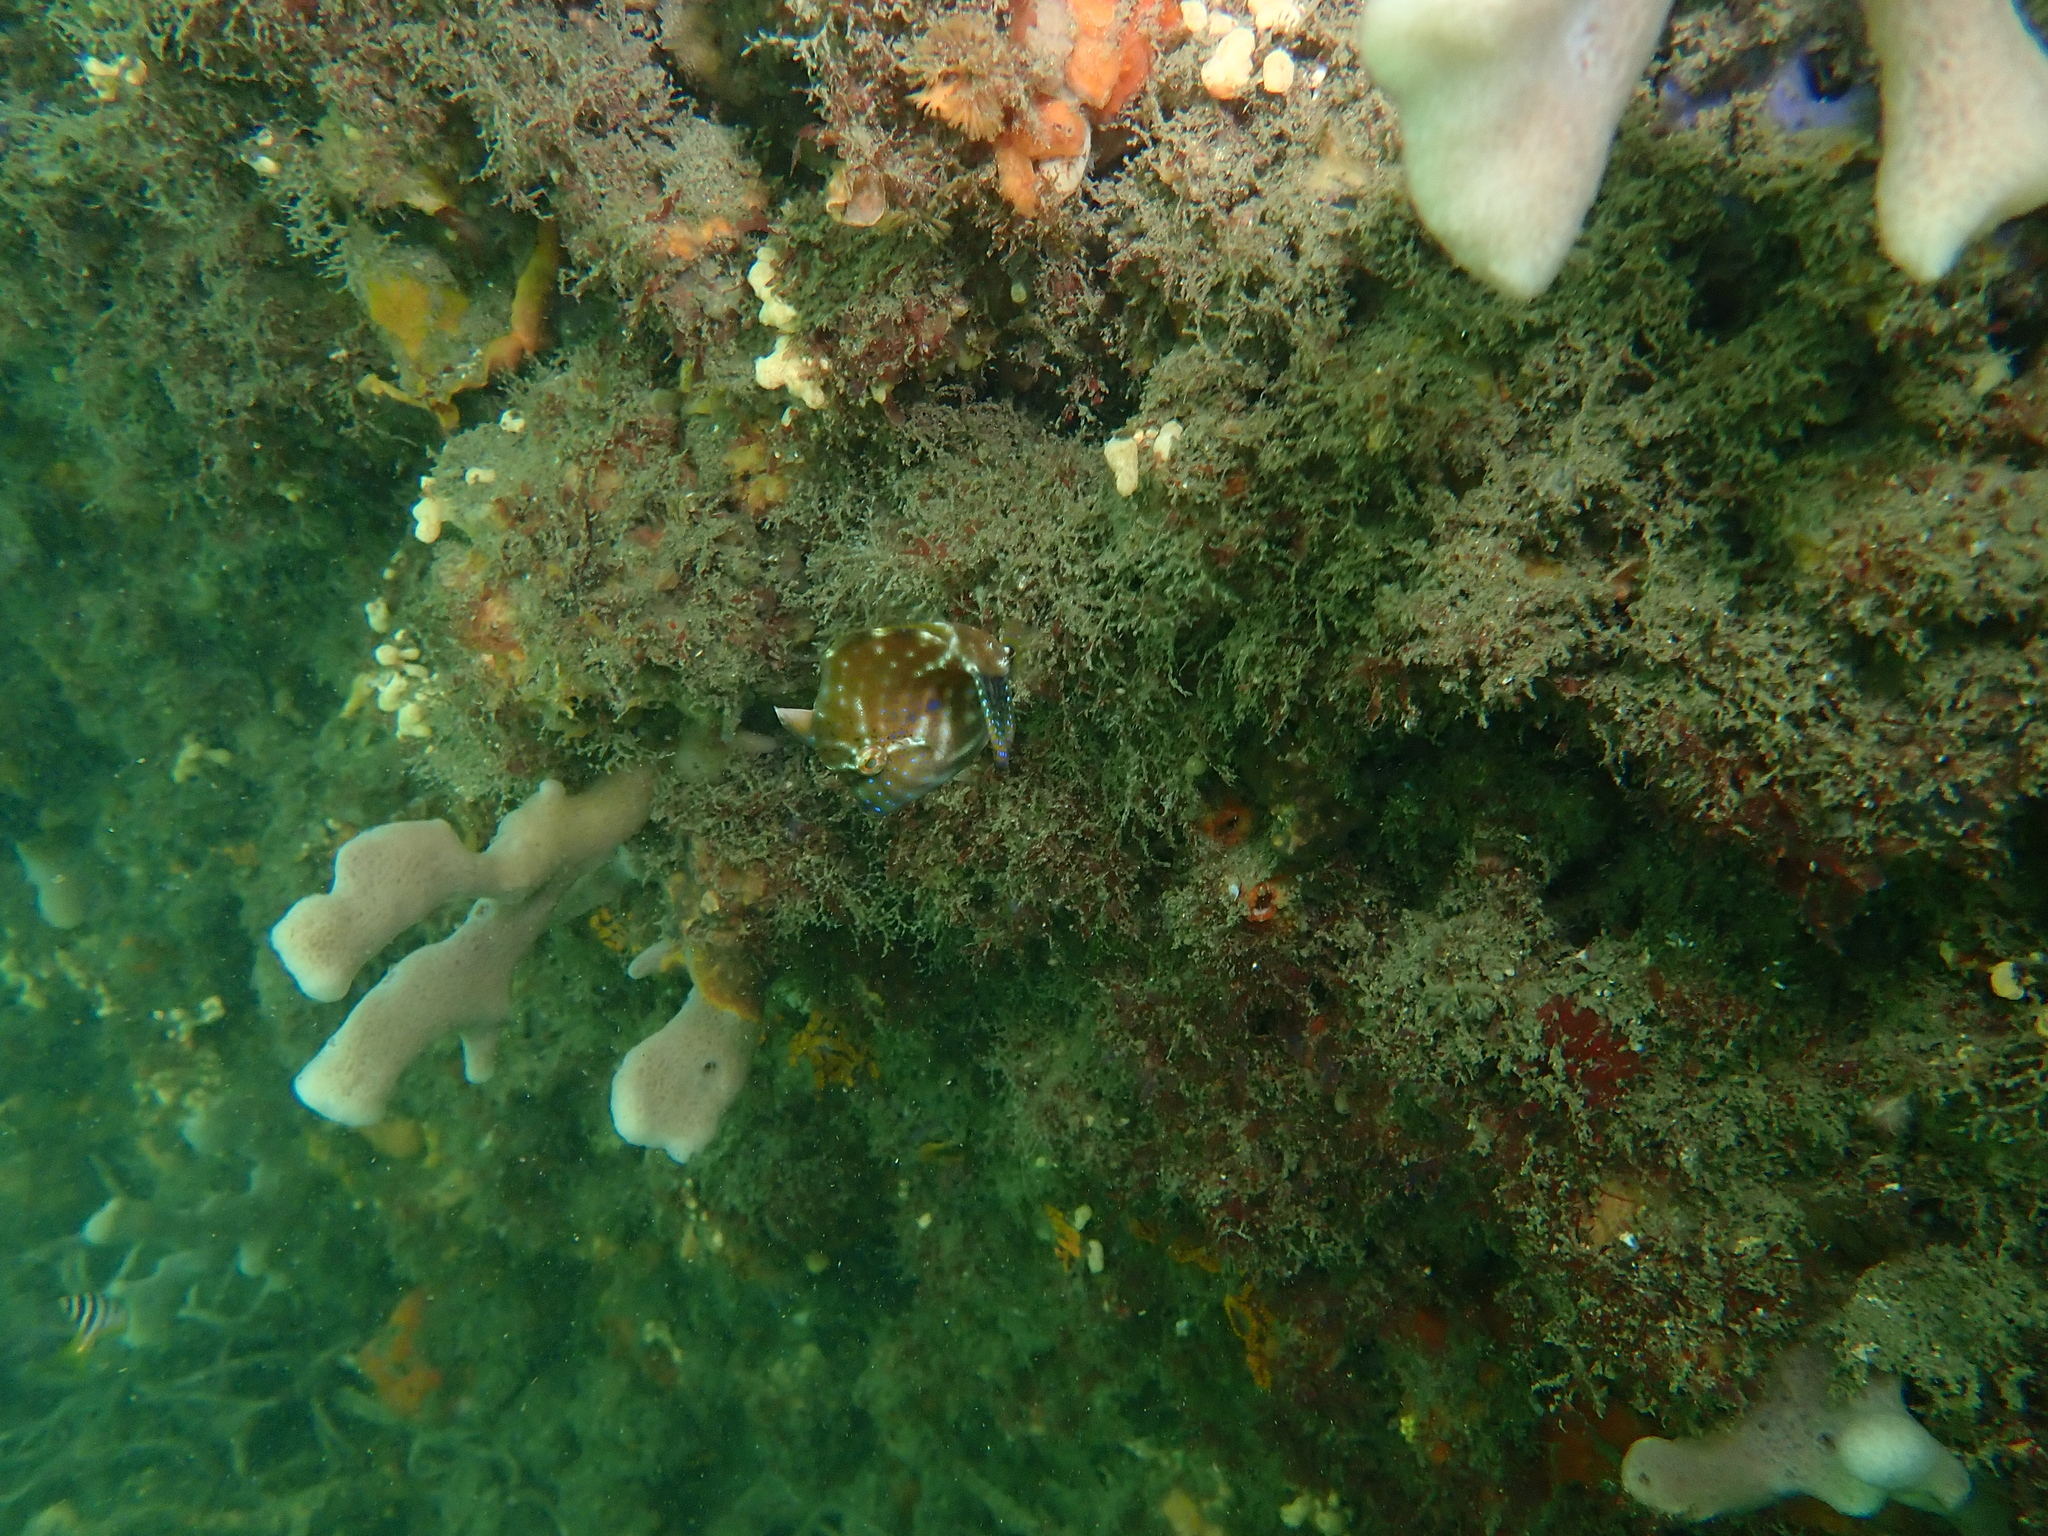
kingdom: Animalia
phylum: Chordata
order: Tetraodontiformes
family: Monacanthidae
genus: Brachaluteres
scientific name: Brachaluteres jacksonianus
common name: Pigmy leatherjacket
